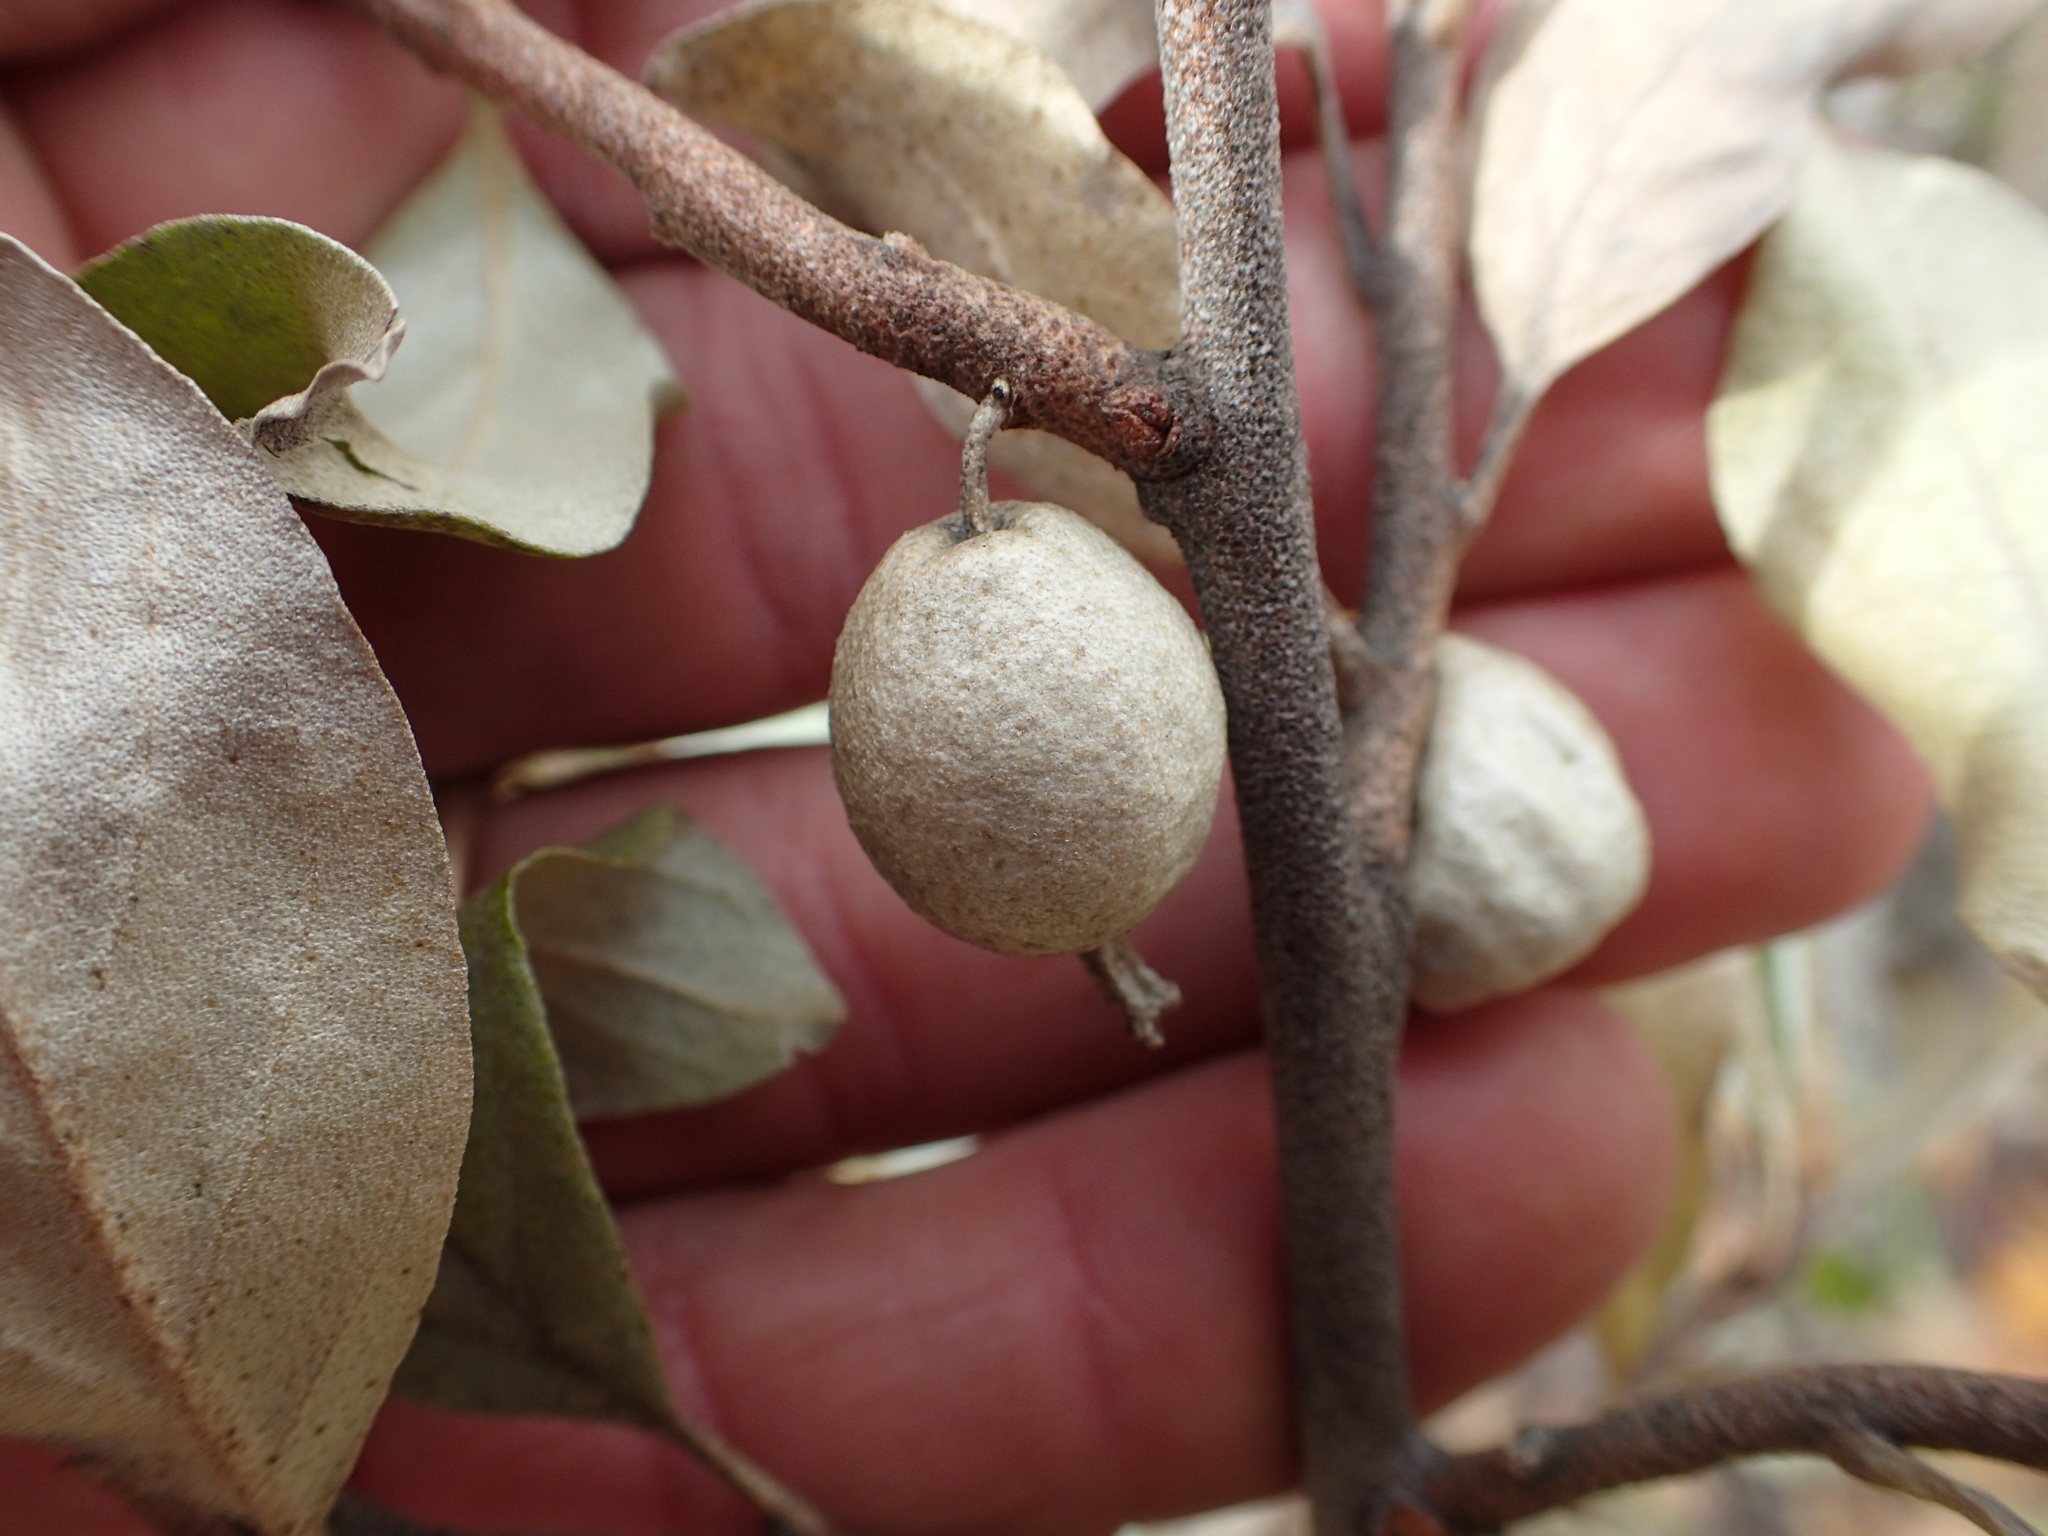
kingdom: Plantae
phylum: Tracheophyta
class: Magnoliopsida
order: Rosales
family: Elaeagnaceae
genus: Elaeagnus
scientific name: Elaeagnus commutata
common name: Silverberry
